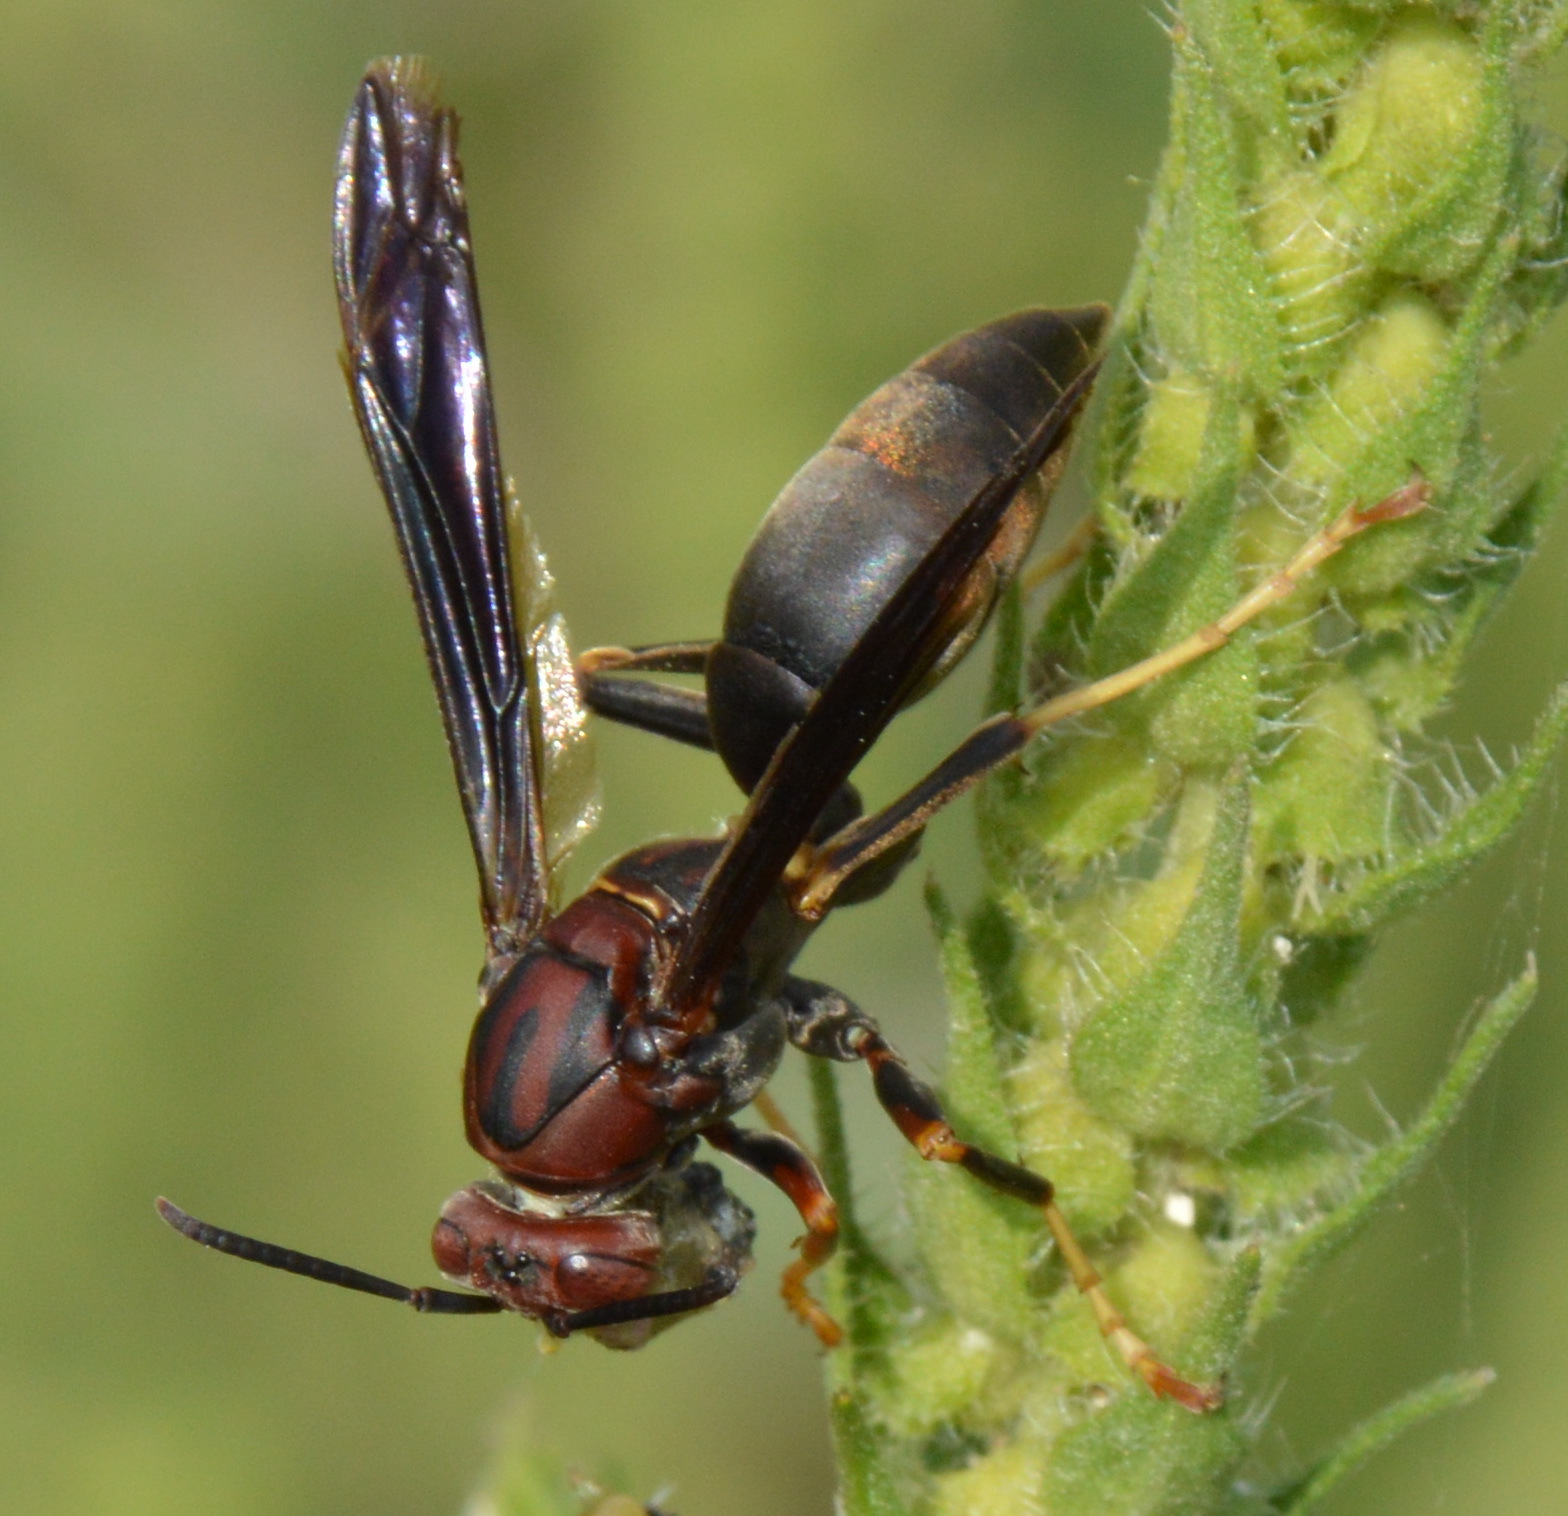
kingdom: Animalia
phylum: Arthropoda
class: Insecta
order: Hymenoptera
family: Eumenidae
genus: Polistes
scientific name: Polistes metricus
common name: Metric paper wasp
